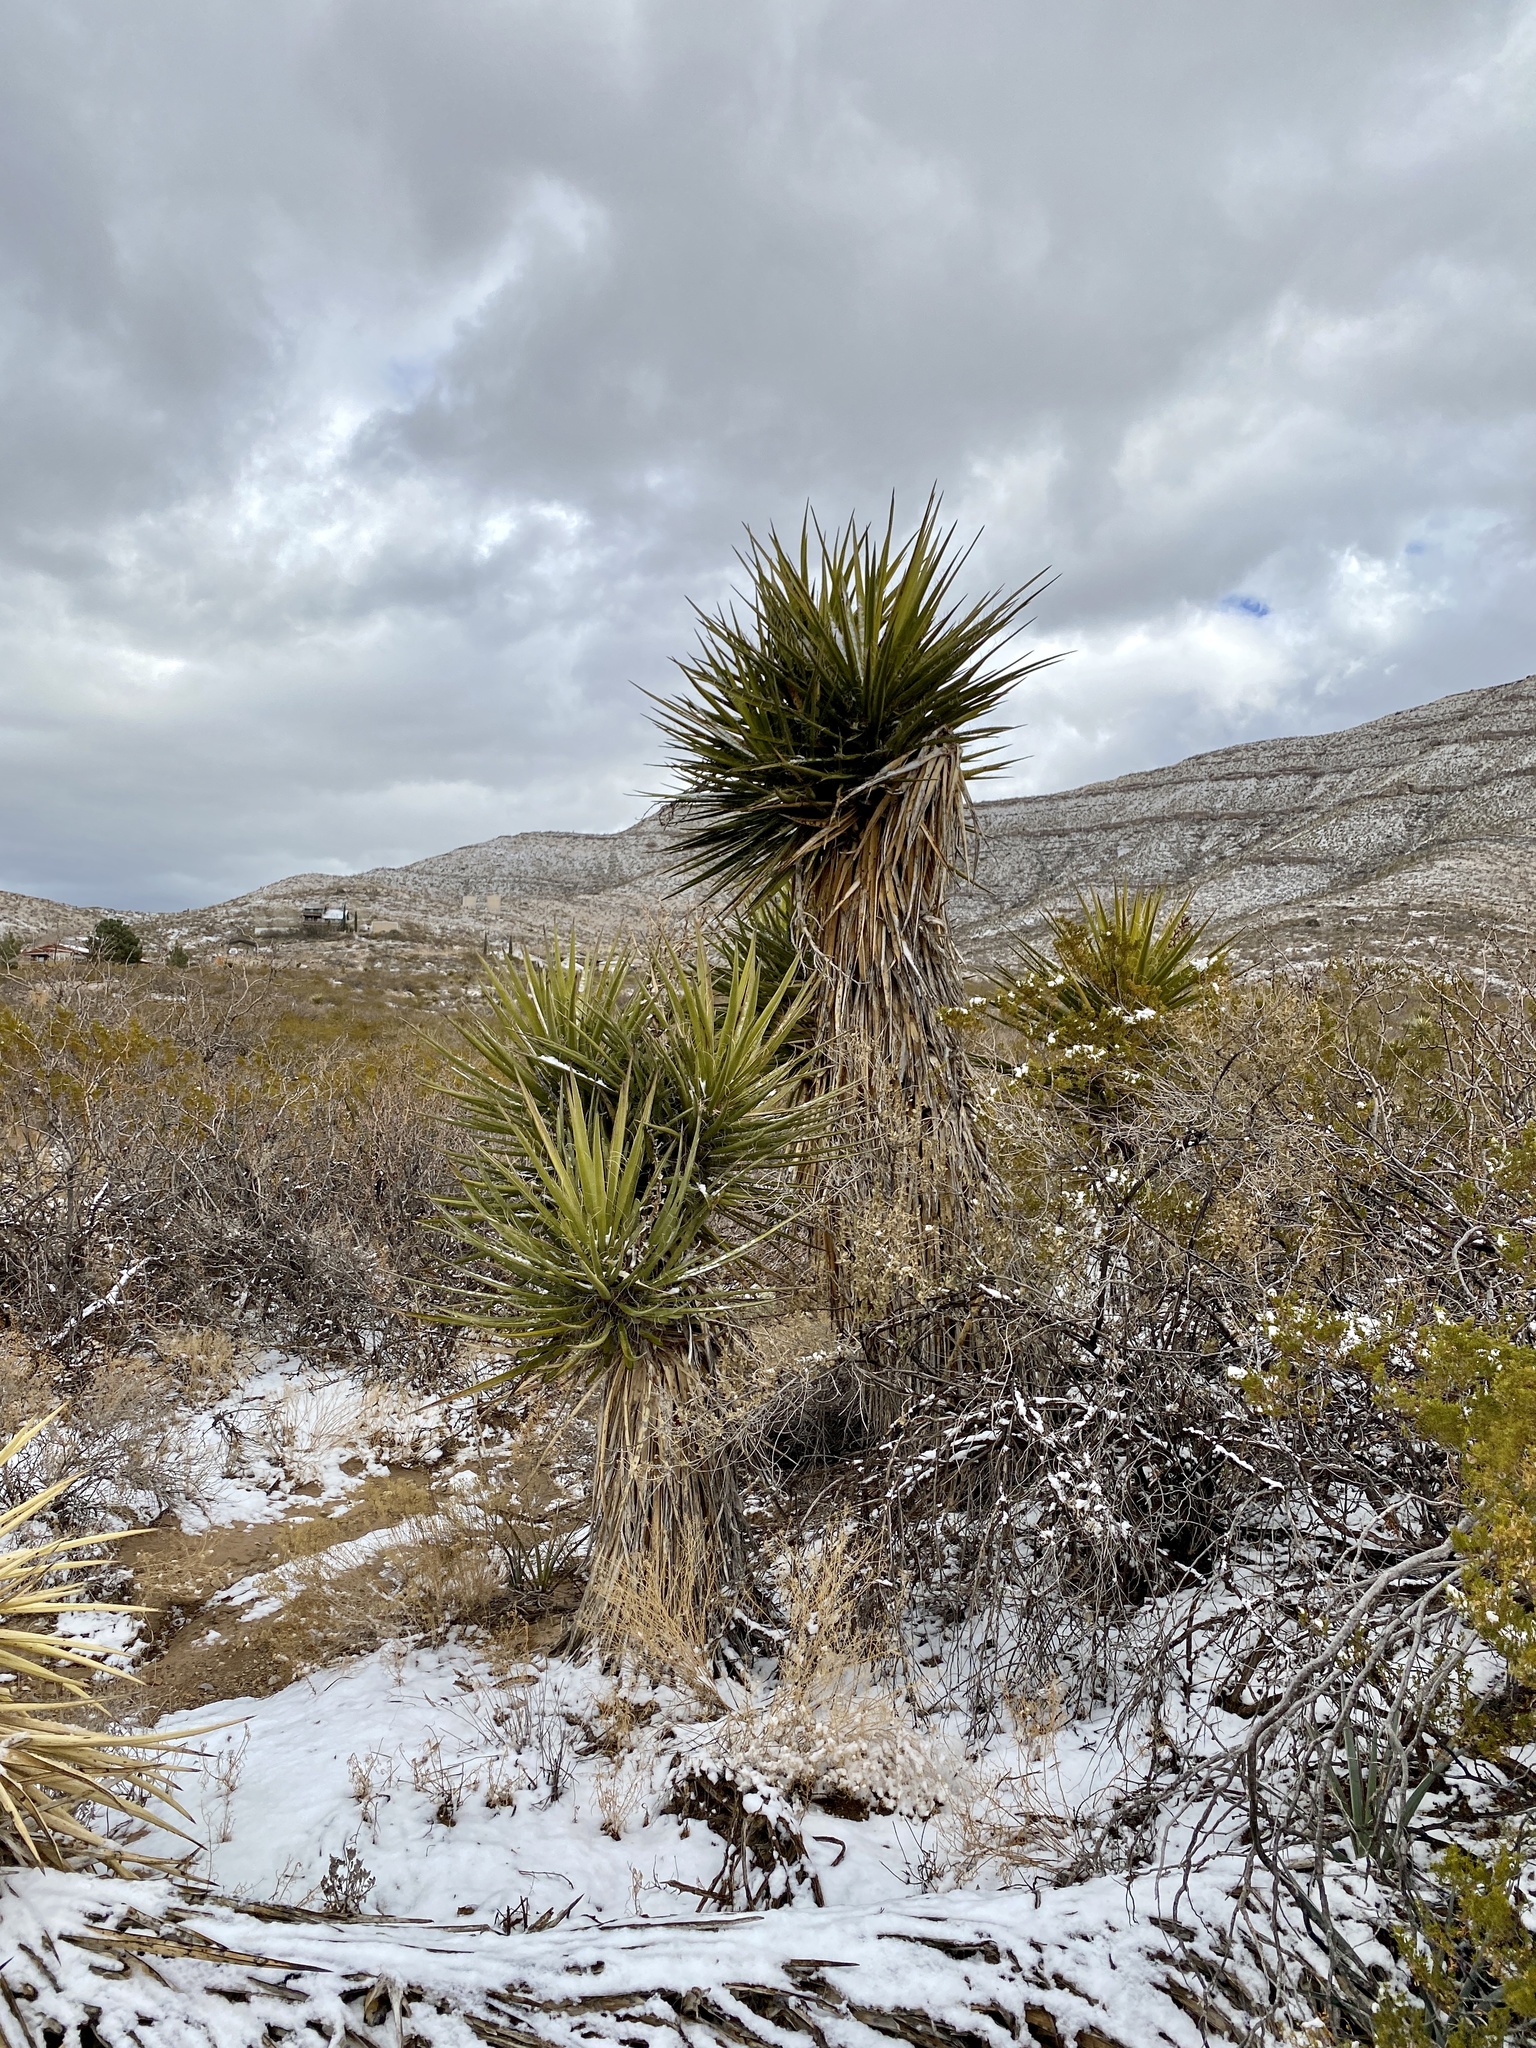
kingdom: Plantae
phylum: Tracheophyta
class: Liliopsida
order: Asparagales
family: Asparagaceae
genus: Yucca
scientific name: Yucca treculiana
